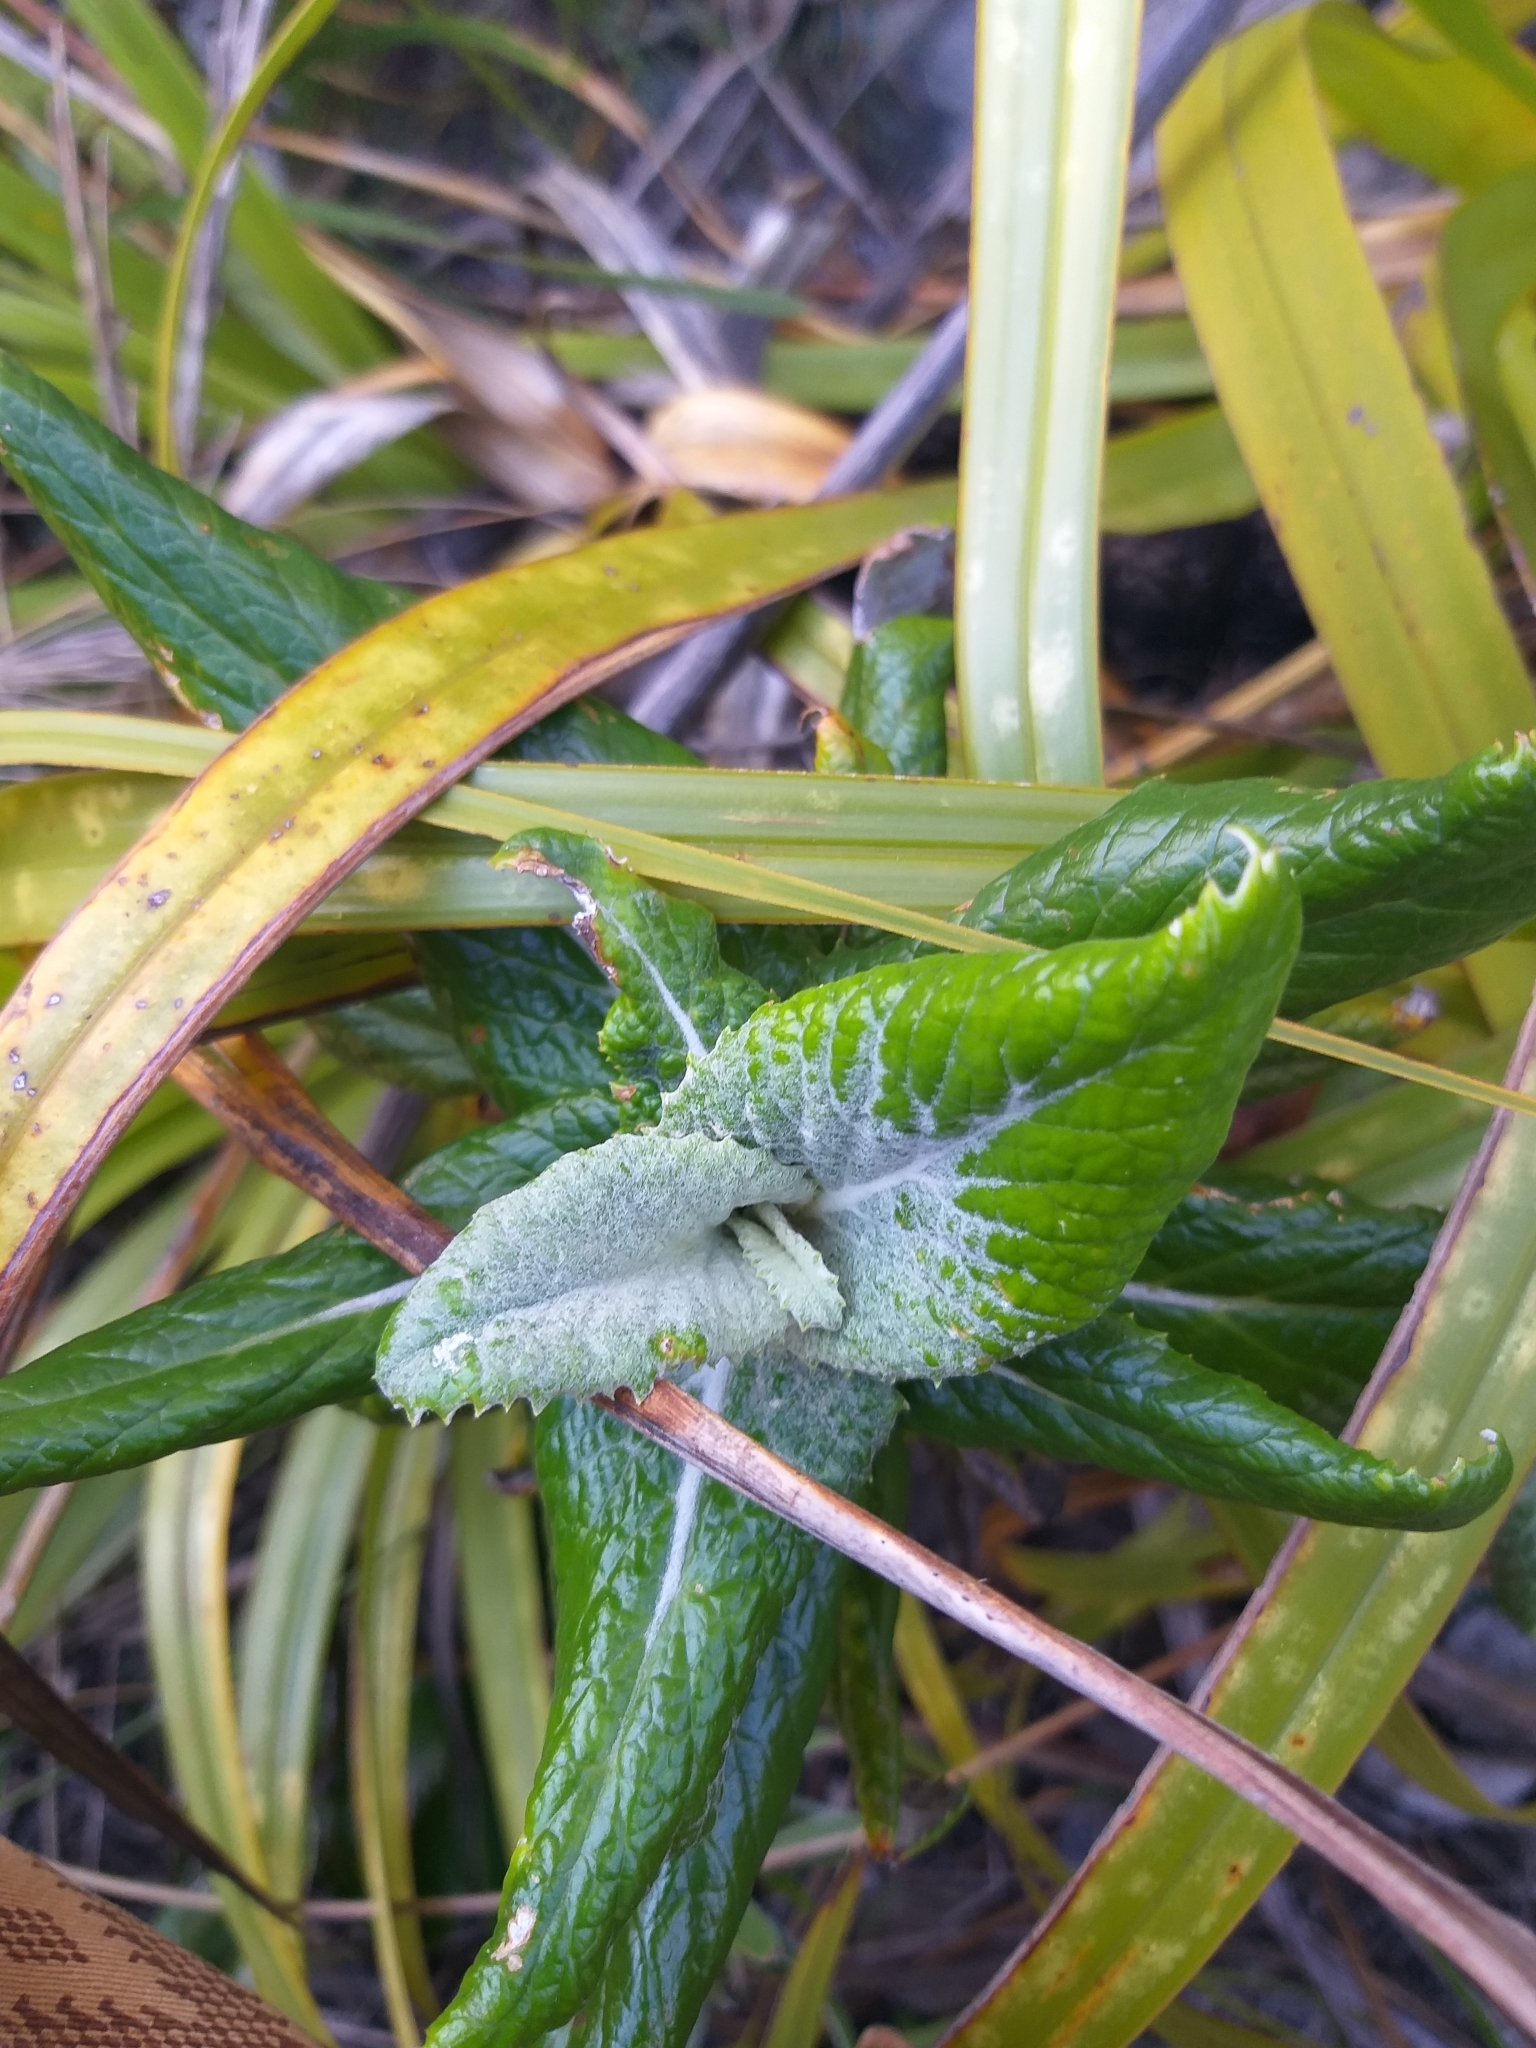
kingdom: Plantae
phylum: Tracheophyta
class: Magnoliopsida
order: Apiales
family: Apiaceae
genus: Hermas
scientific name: Hermas villosa
